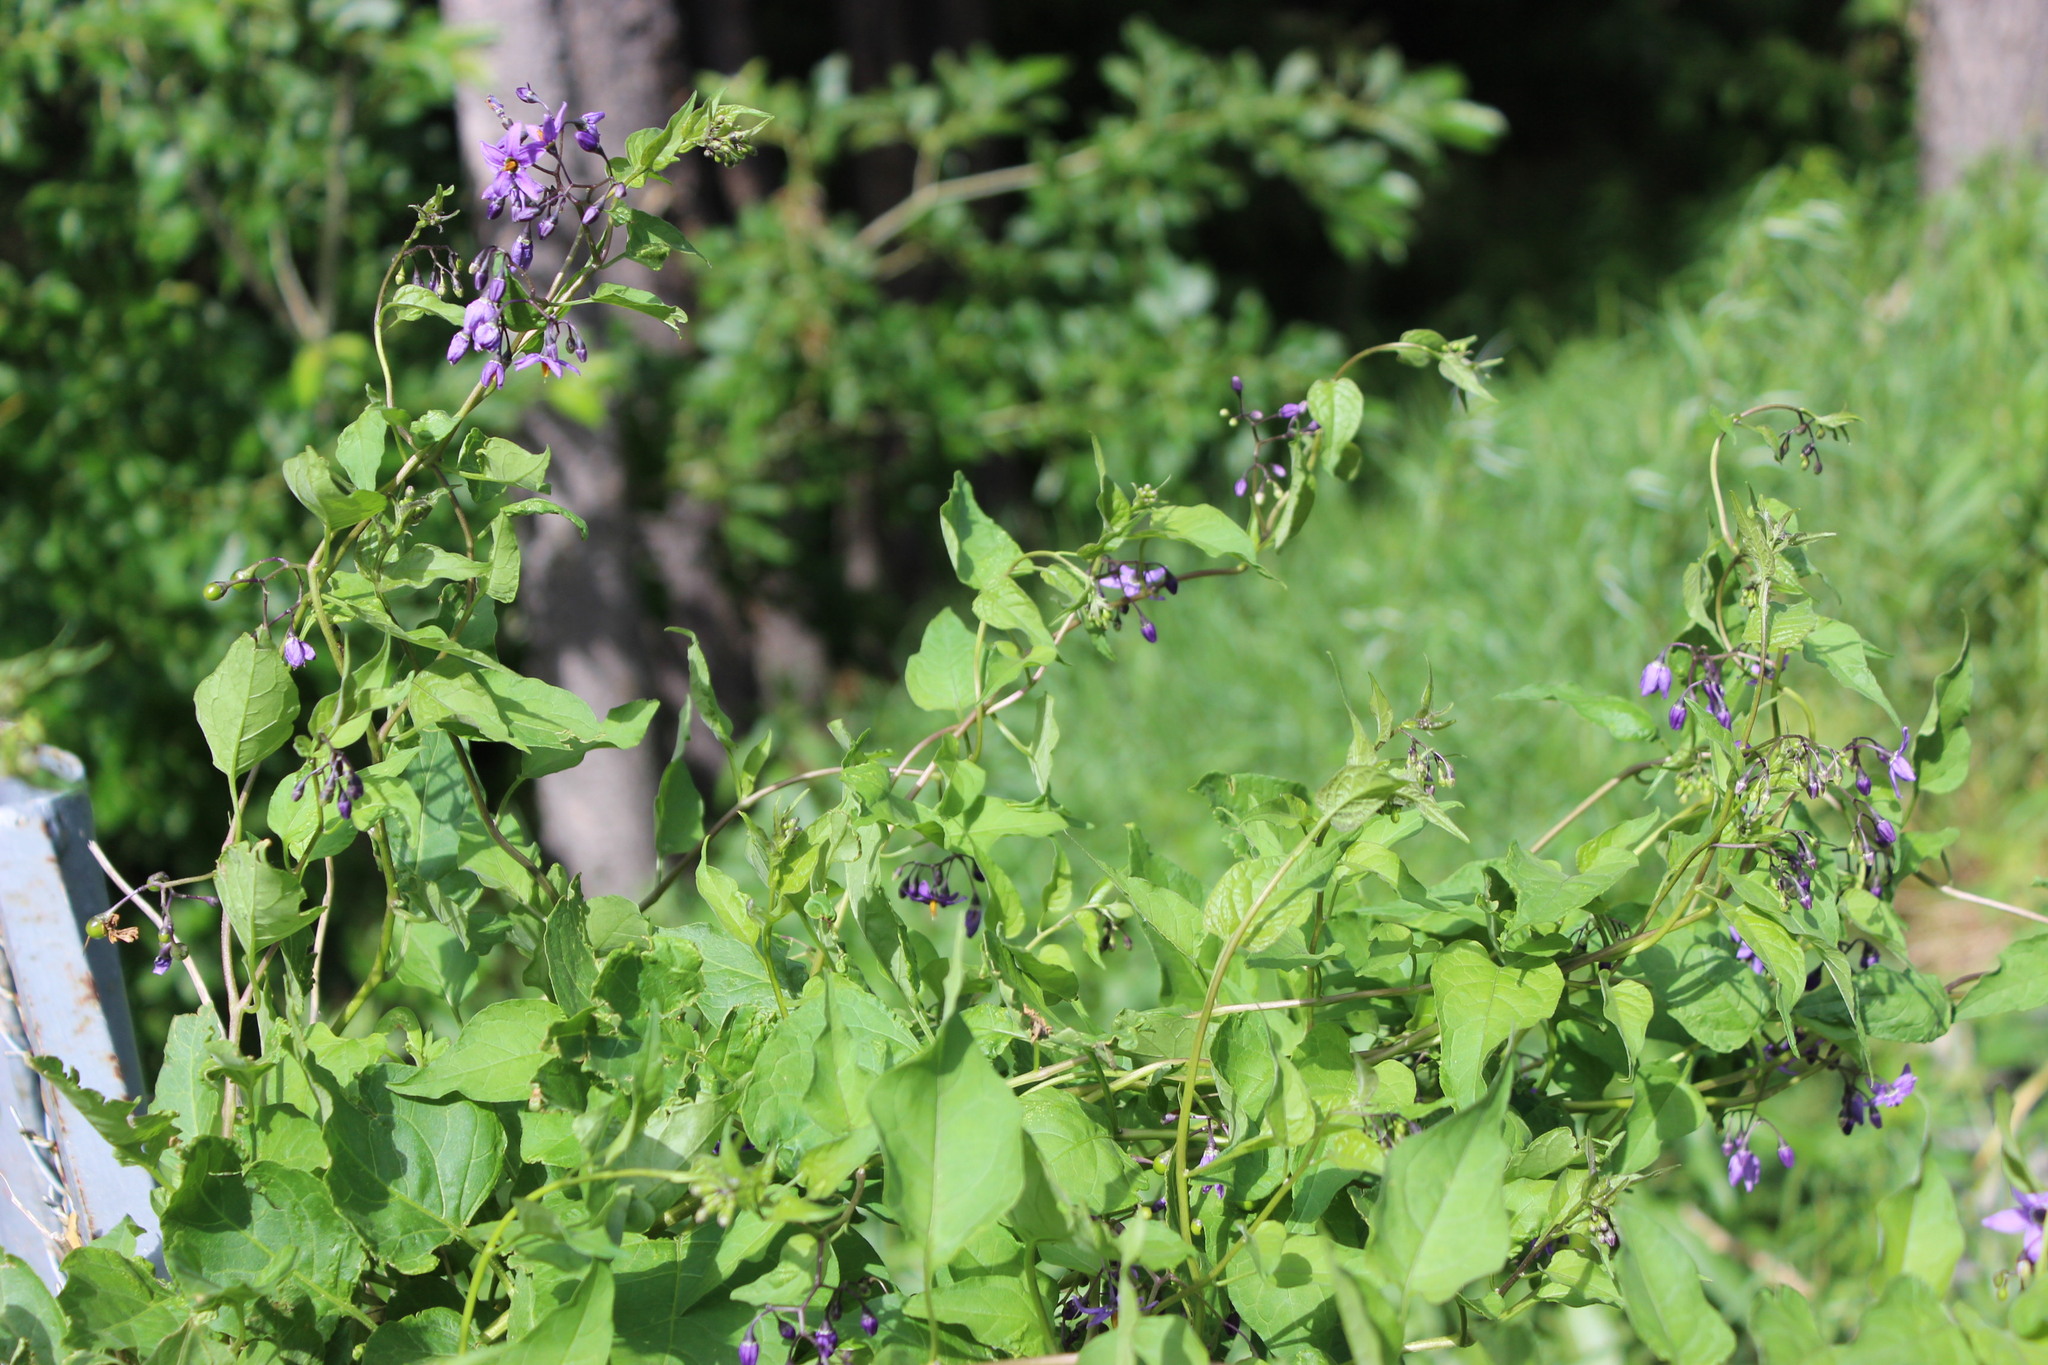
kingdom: Plantae
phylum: Tracheophyta
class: Magnoliopsida
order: Solanales
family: Solanaceae
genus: Solanum
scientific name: Solanum dulcamara
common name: Climbing nightshade
